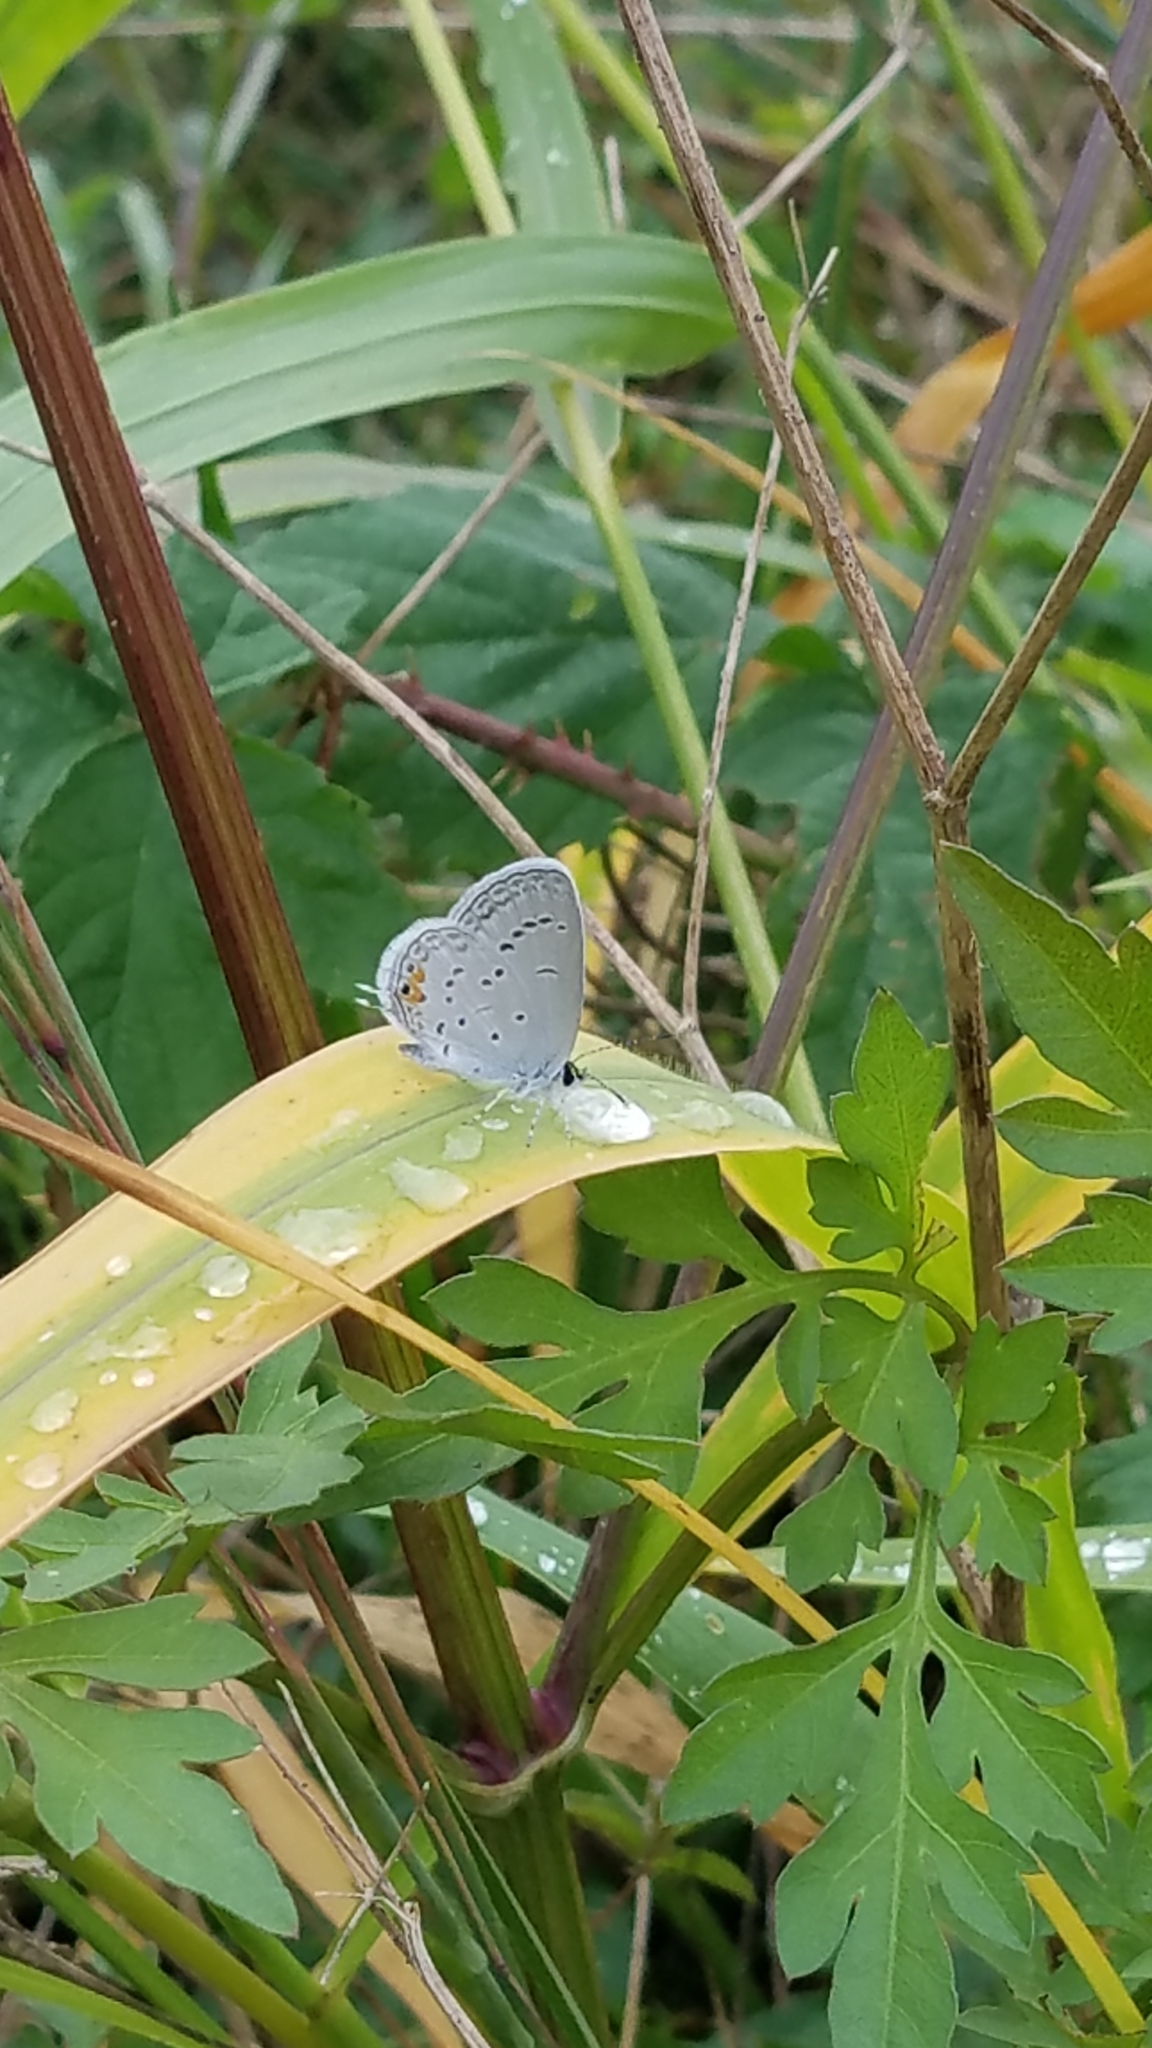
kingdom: Animalia
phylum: Arthropoda
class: Insecta
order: Lepidoptera
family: Lycaenidae
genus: Elkalyce
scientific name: Elkalyce comyntas
